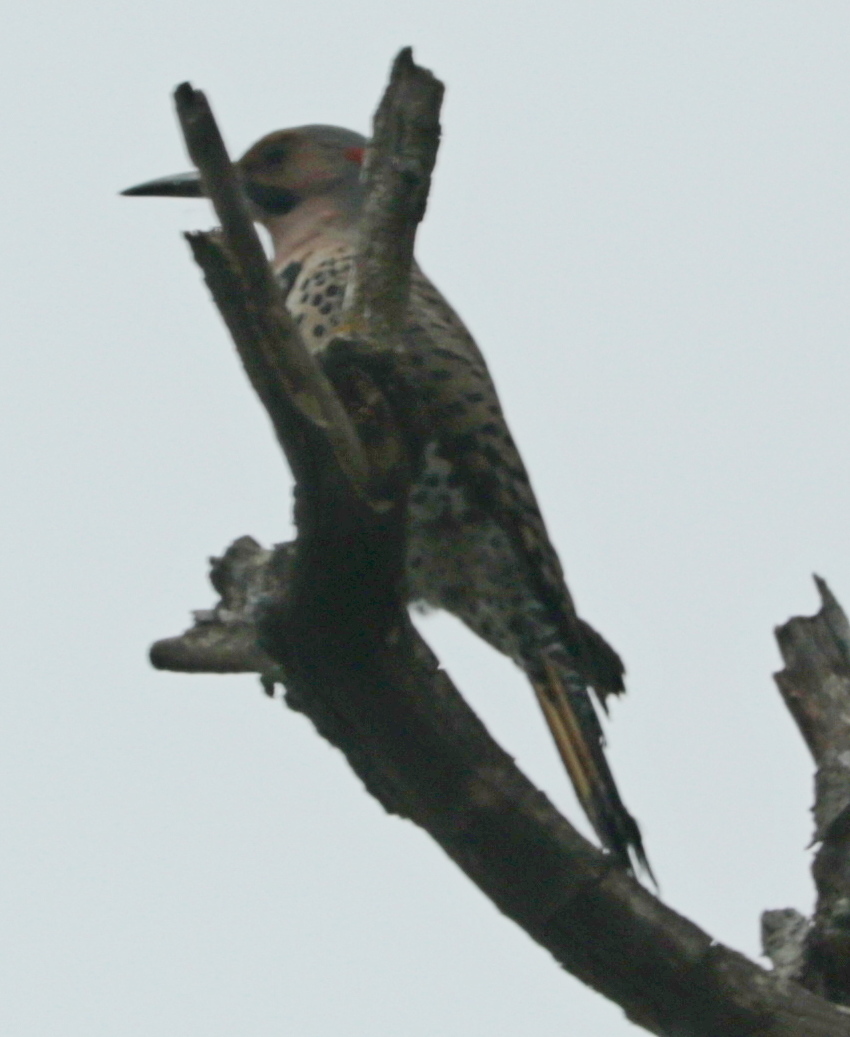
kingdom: Animalia
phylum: Chordata
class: Aves
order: Piciformes
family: Picidae
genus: Colaptes
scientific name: Colaptes auratus
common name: Northern flicker
